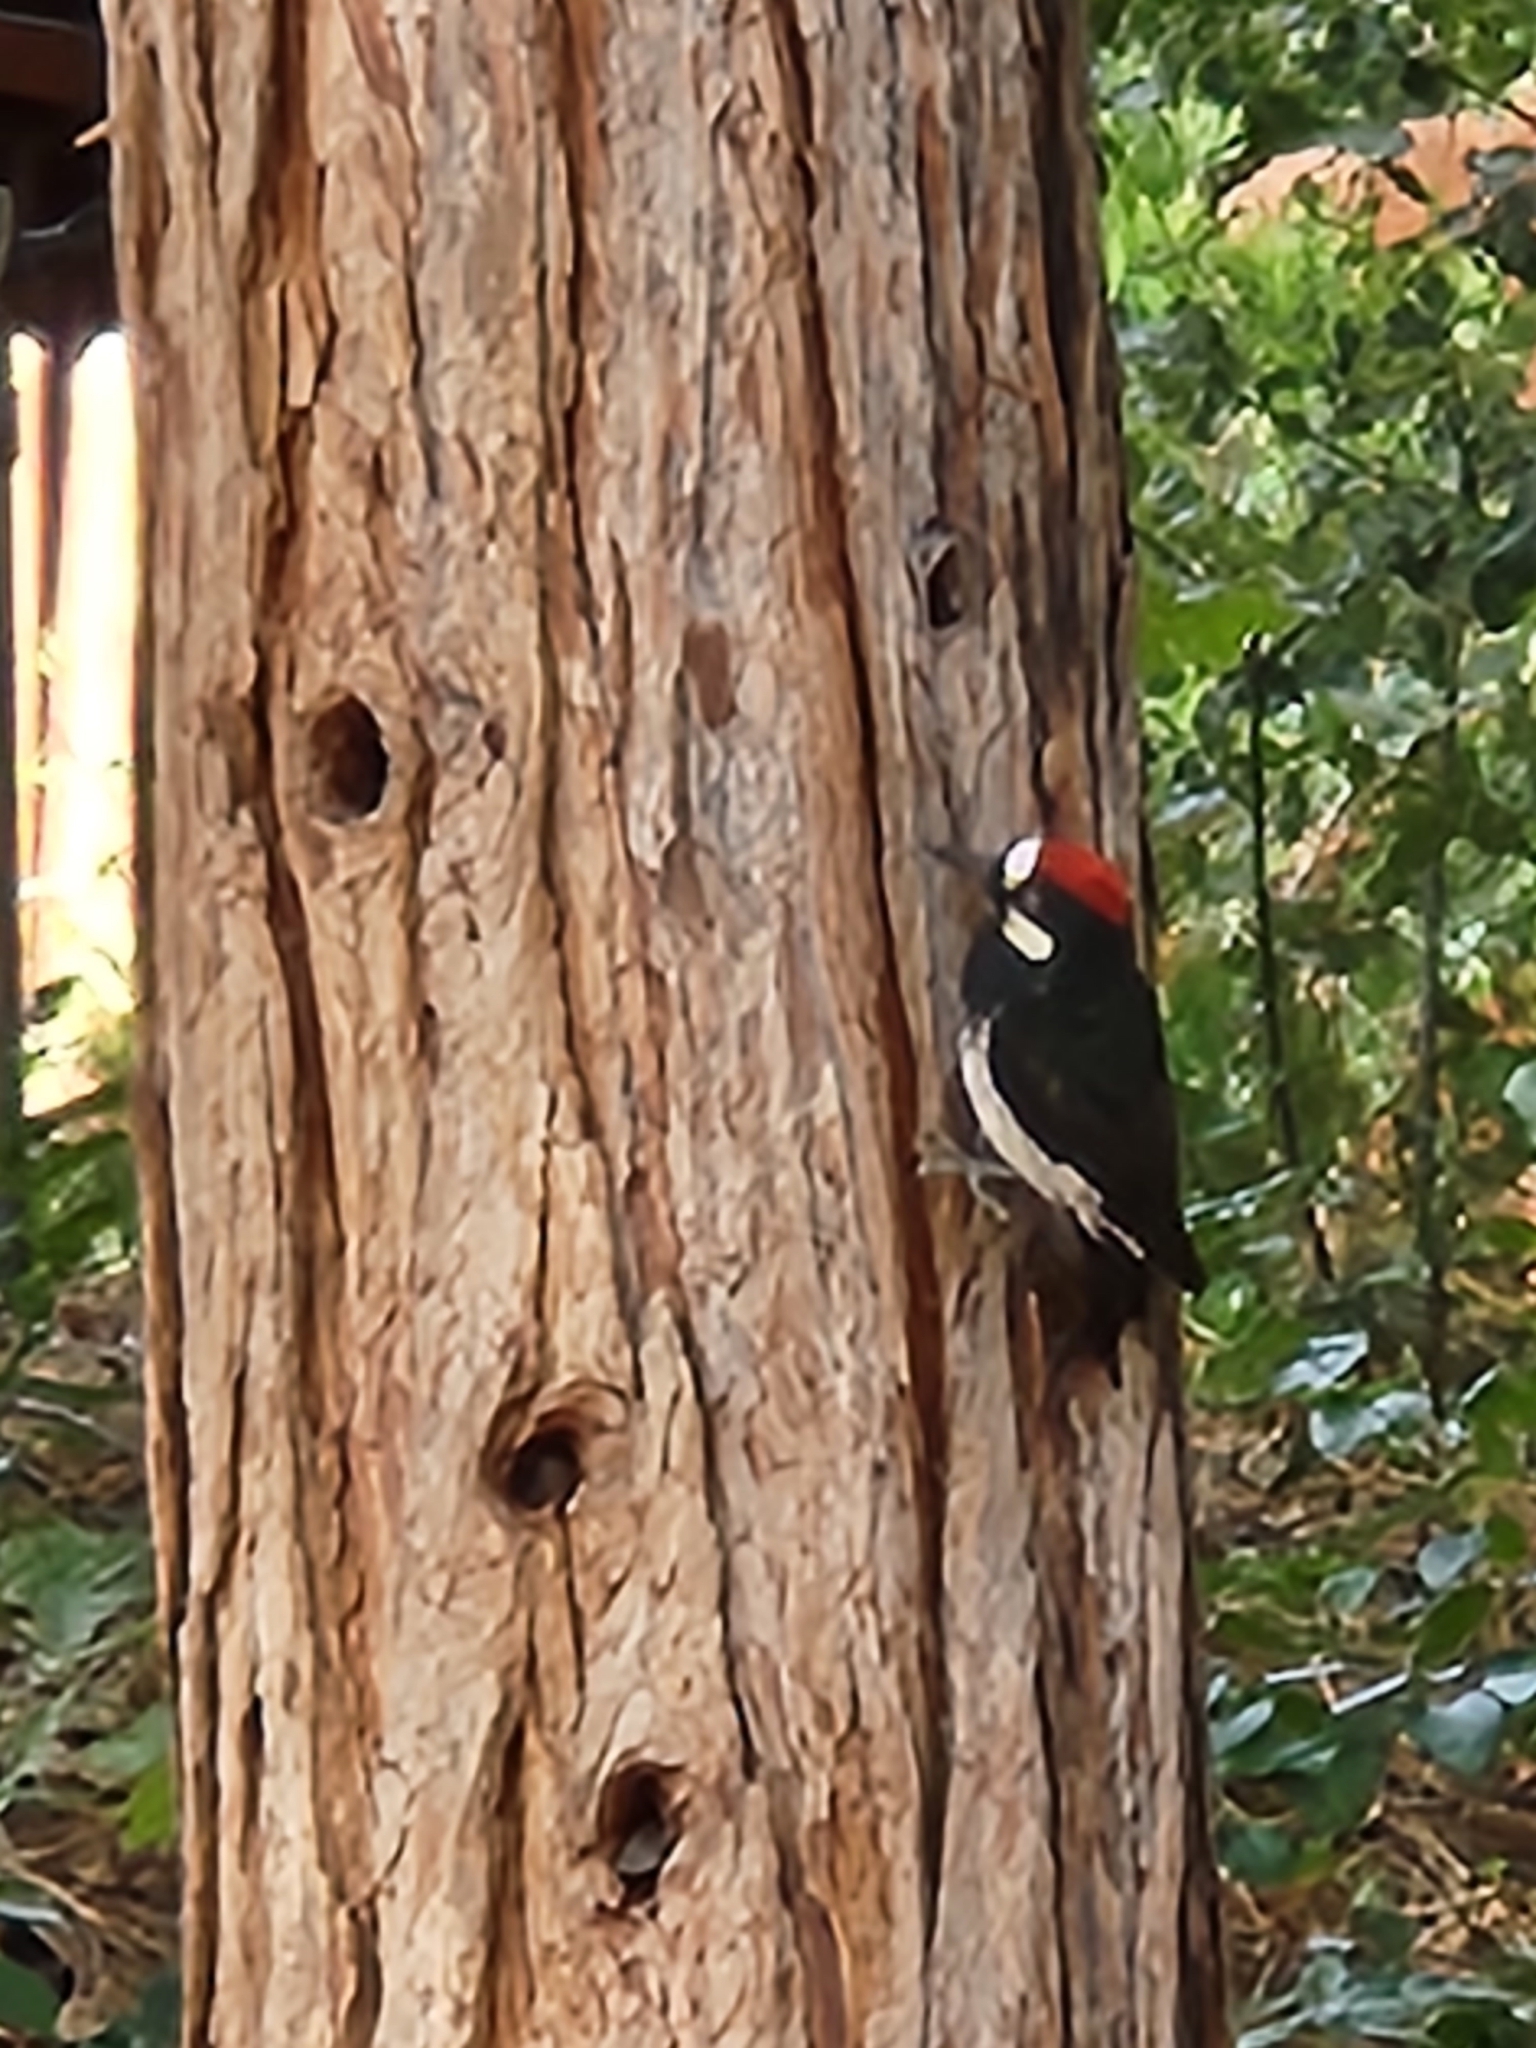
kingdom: Animalia
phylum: Chordata
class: Aves
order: Piciformes
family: Picidae
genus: Melanerpes
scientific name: Melanerpes formicivorus
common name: Acorn woodpecker
